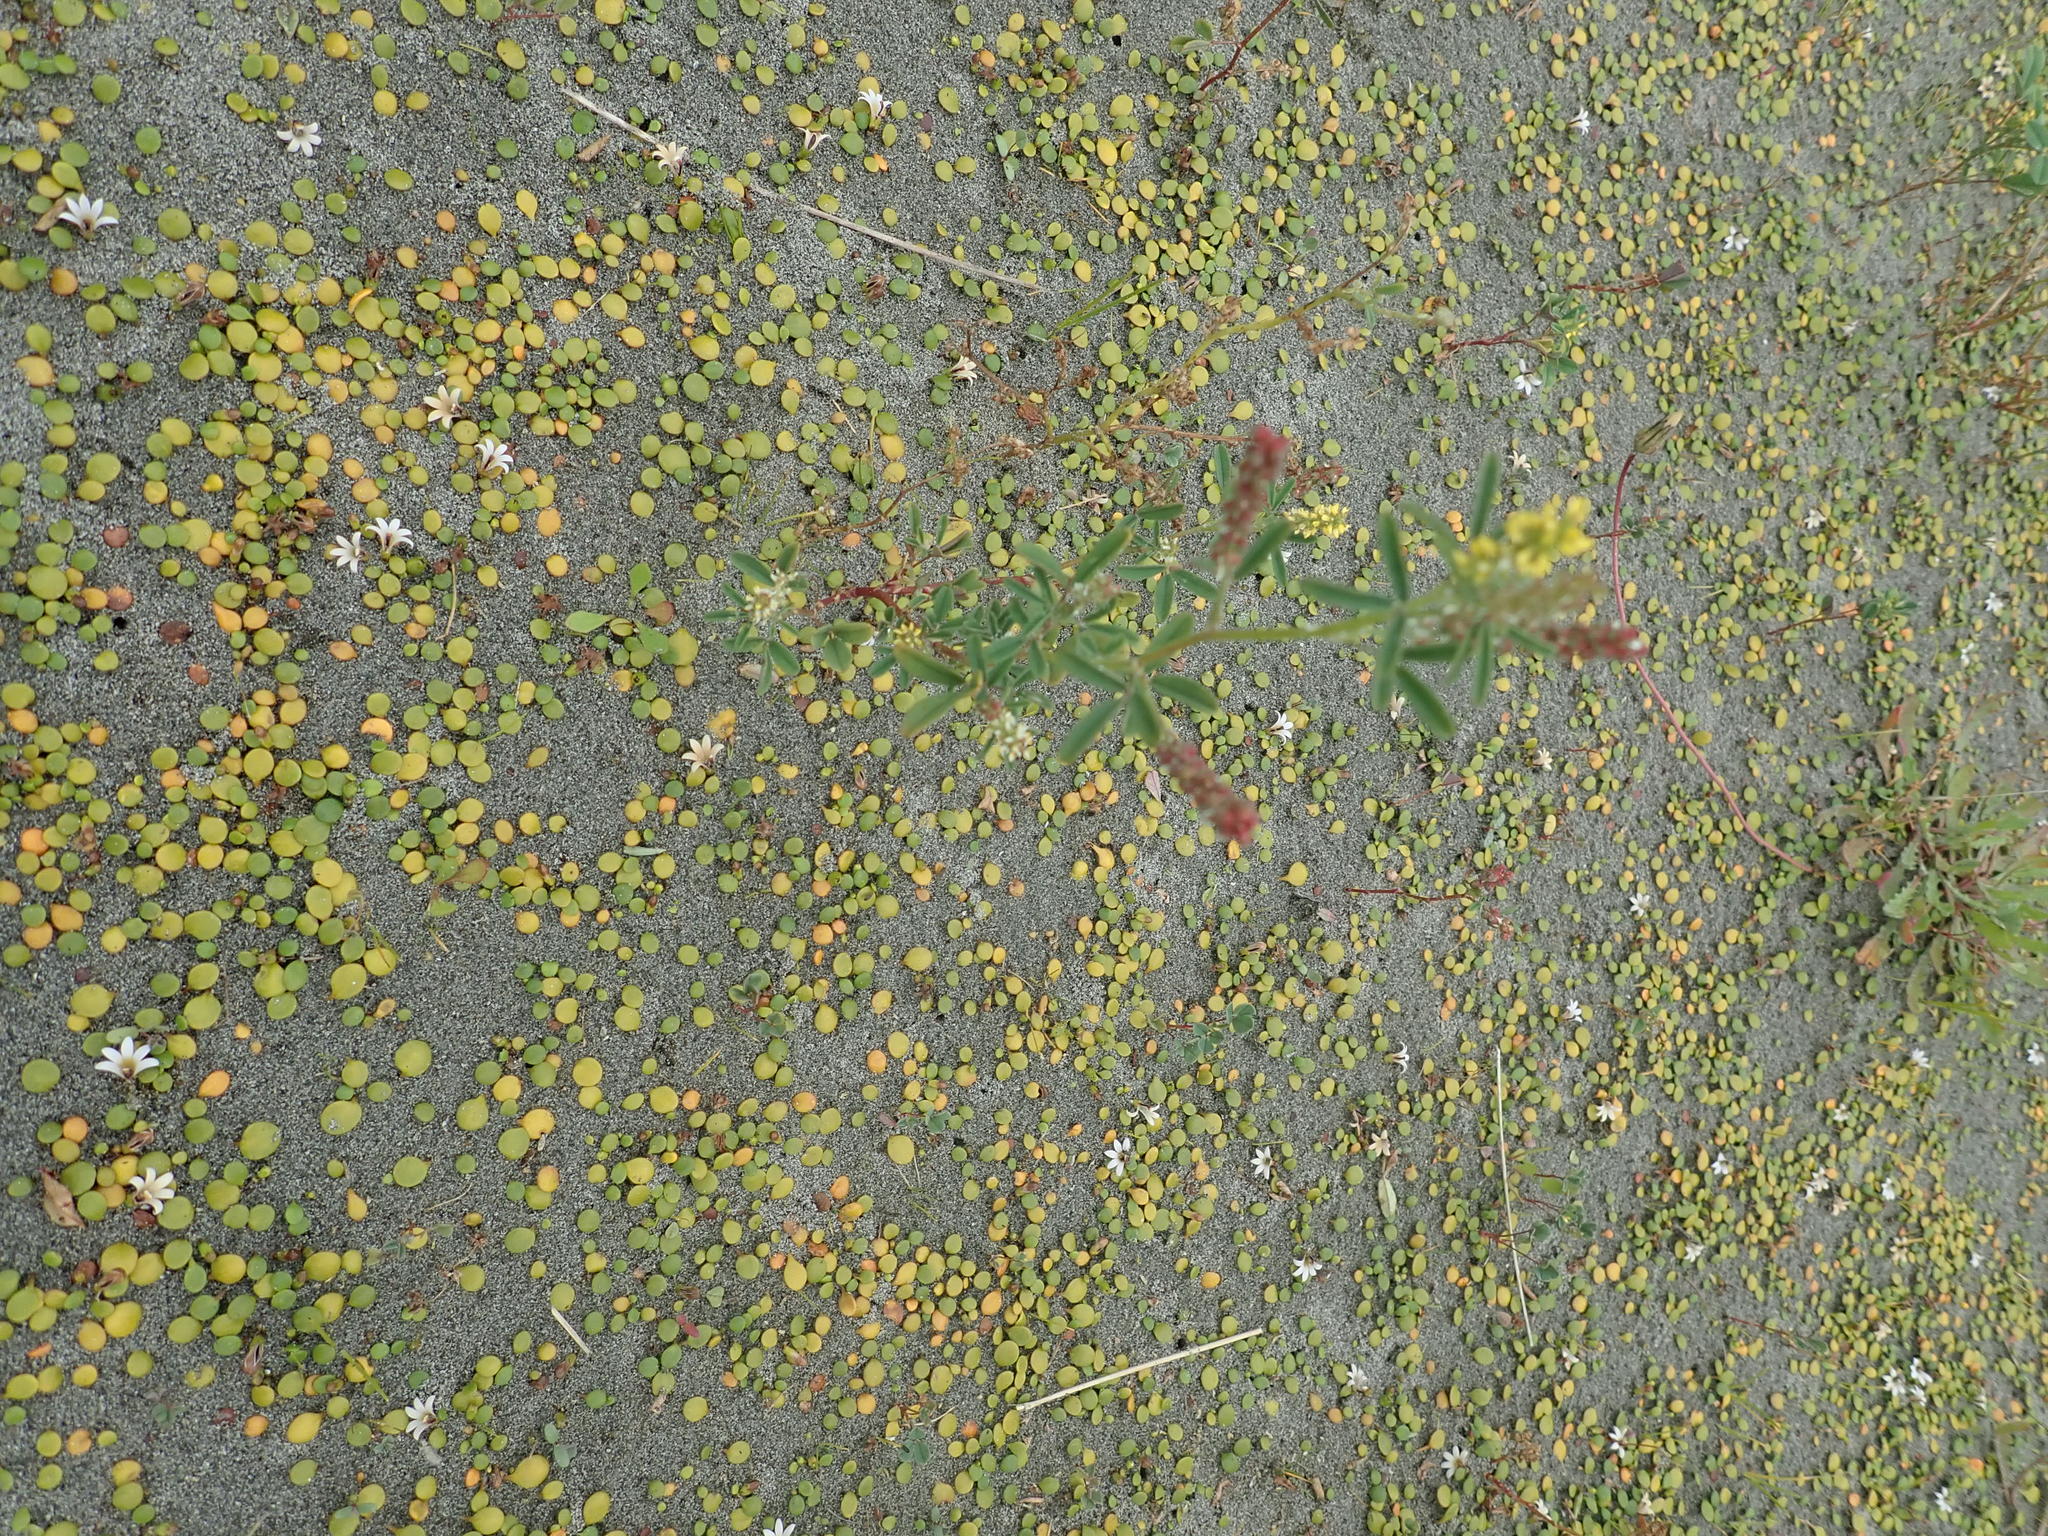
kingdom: Plantae
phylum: Tracheophyta
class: Magnoliopsida
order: Fabales
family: Fabaceae
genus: Melilotus
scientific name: Melilotus indicus
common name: Small melilot
